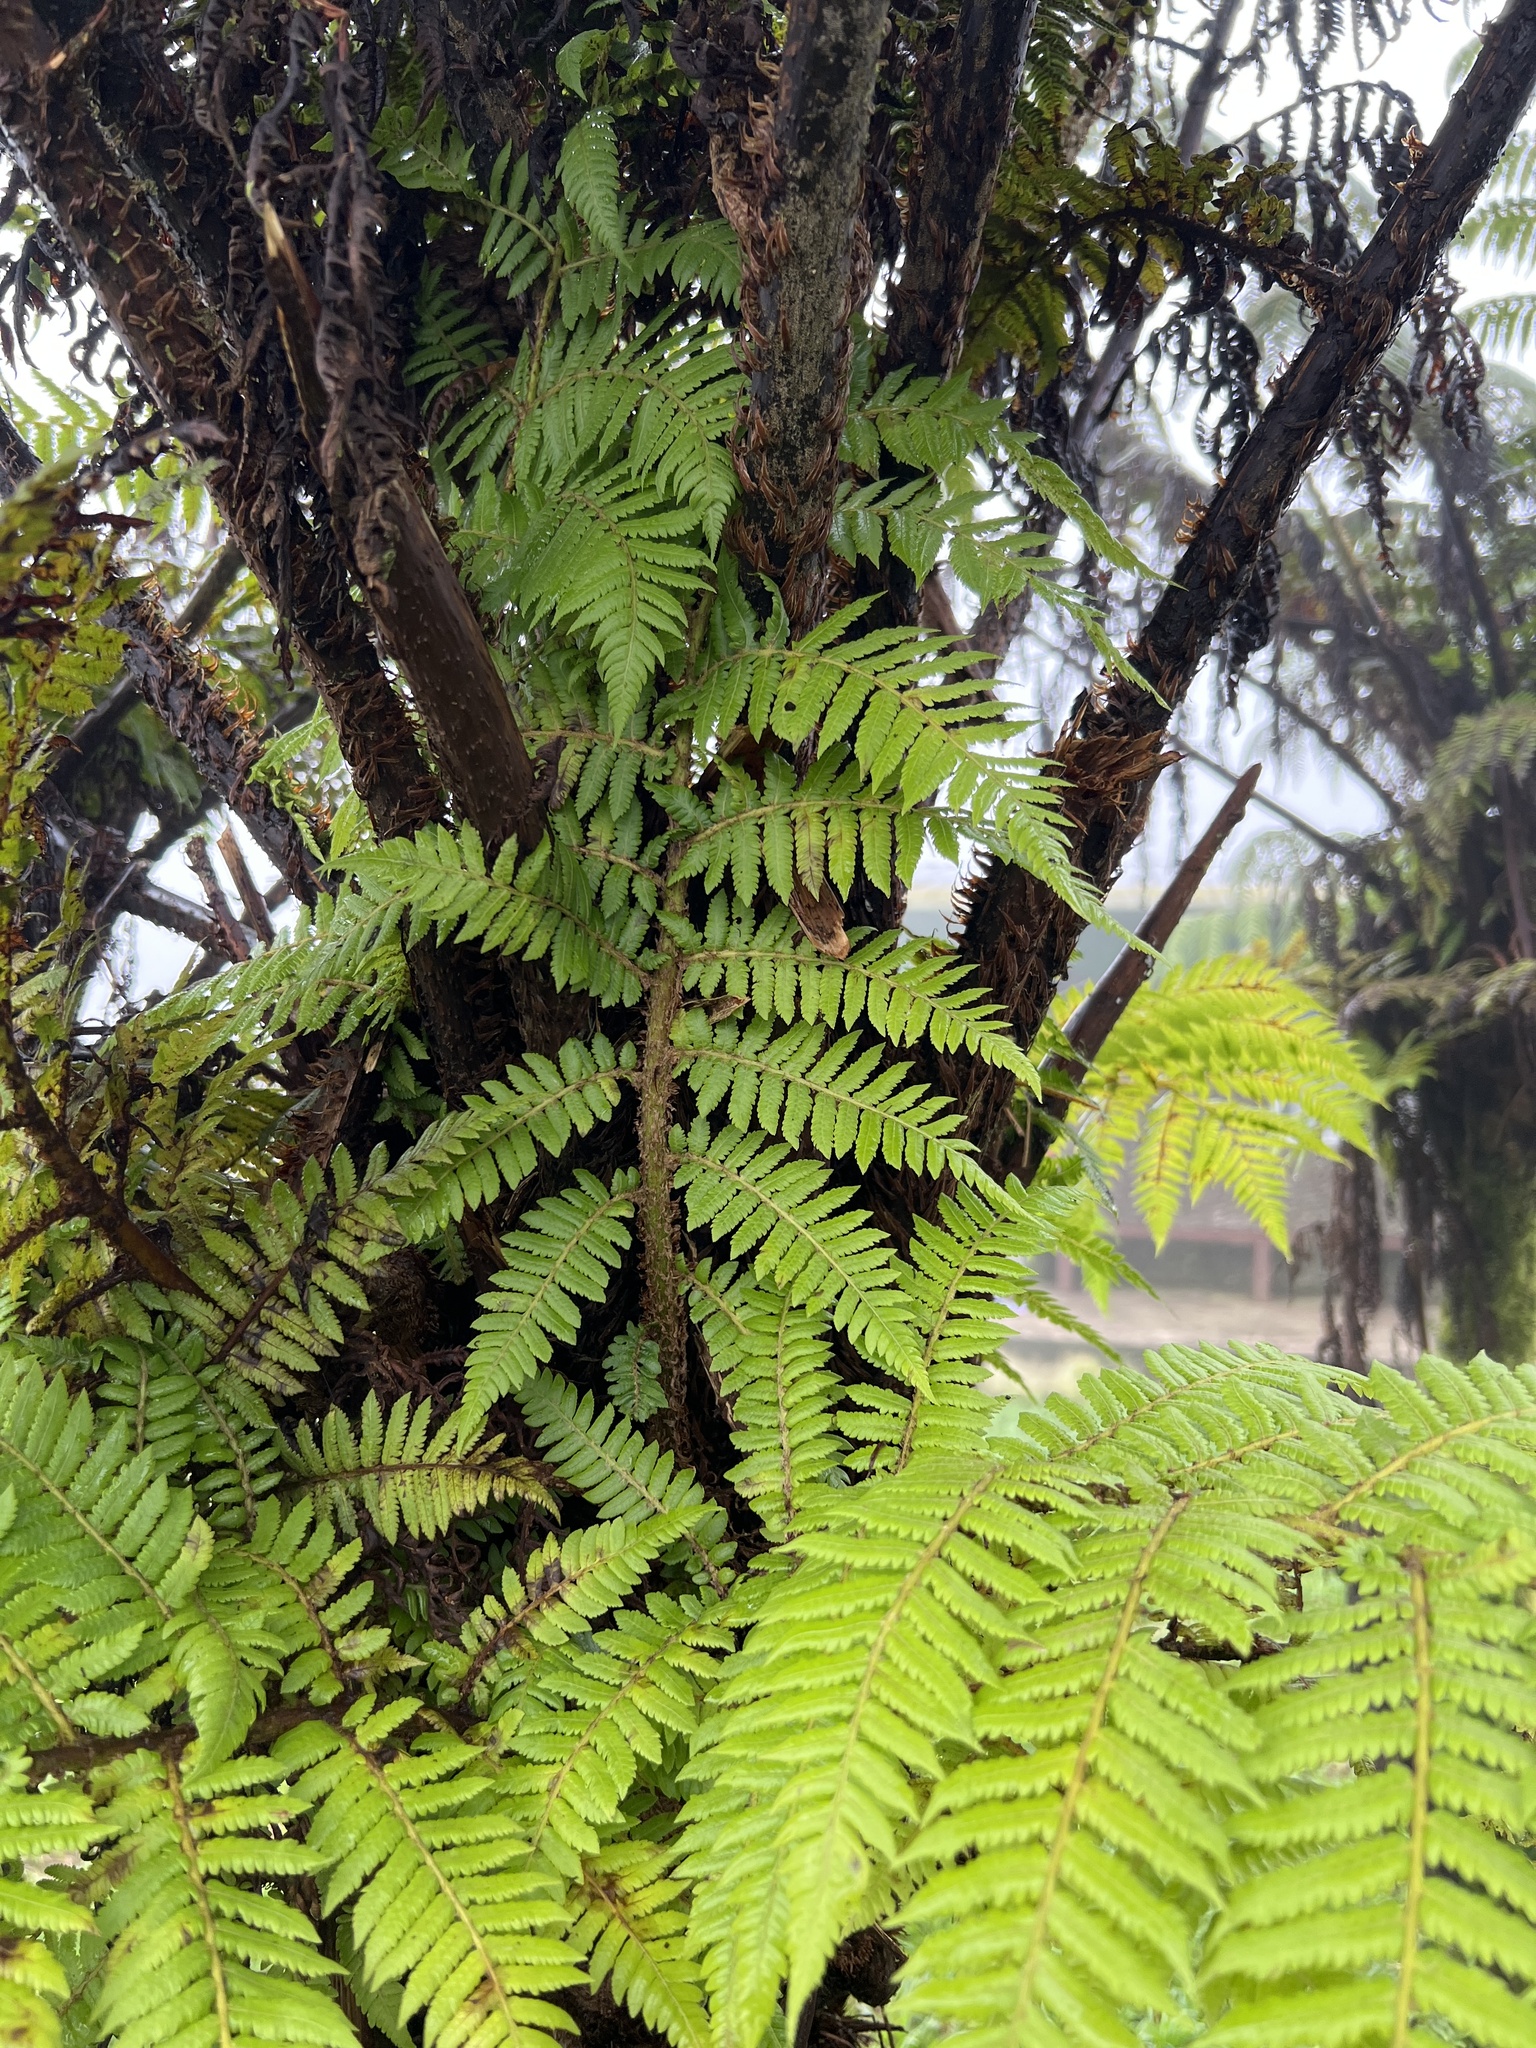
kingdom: Plantae
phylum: Tracheophyta
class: Polypodiopsida
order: Cyatheales
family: Cyatheaceae
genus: Cyathea
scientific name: Cyathea weatherbyana
